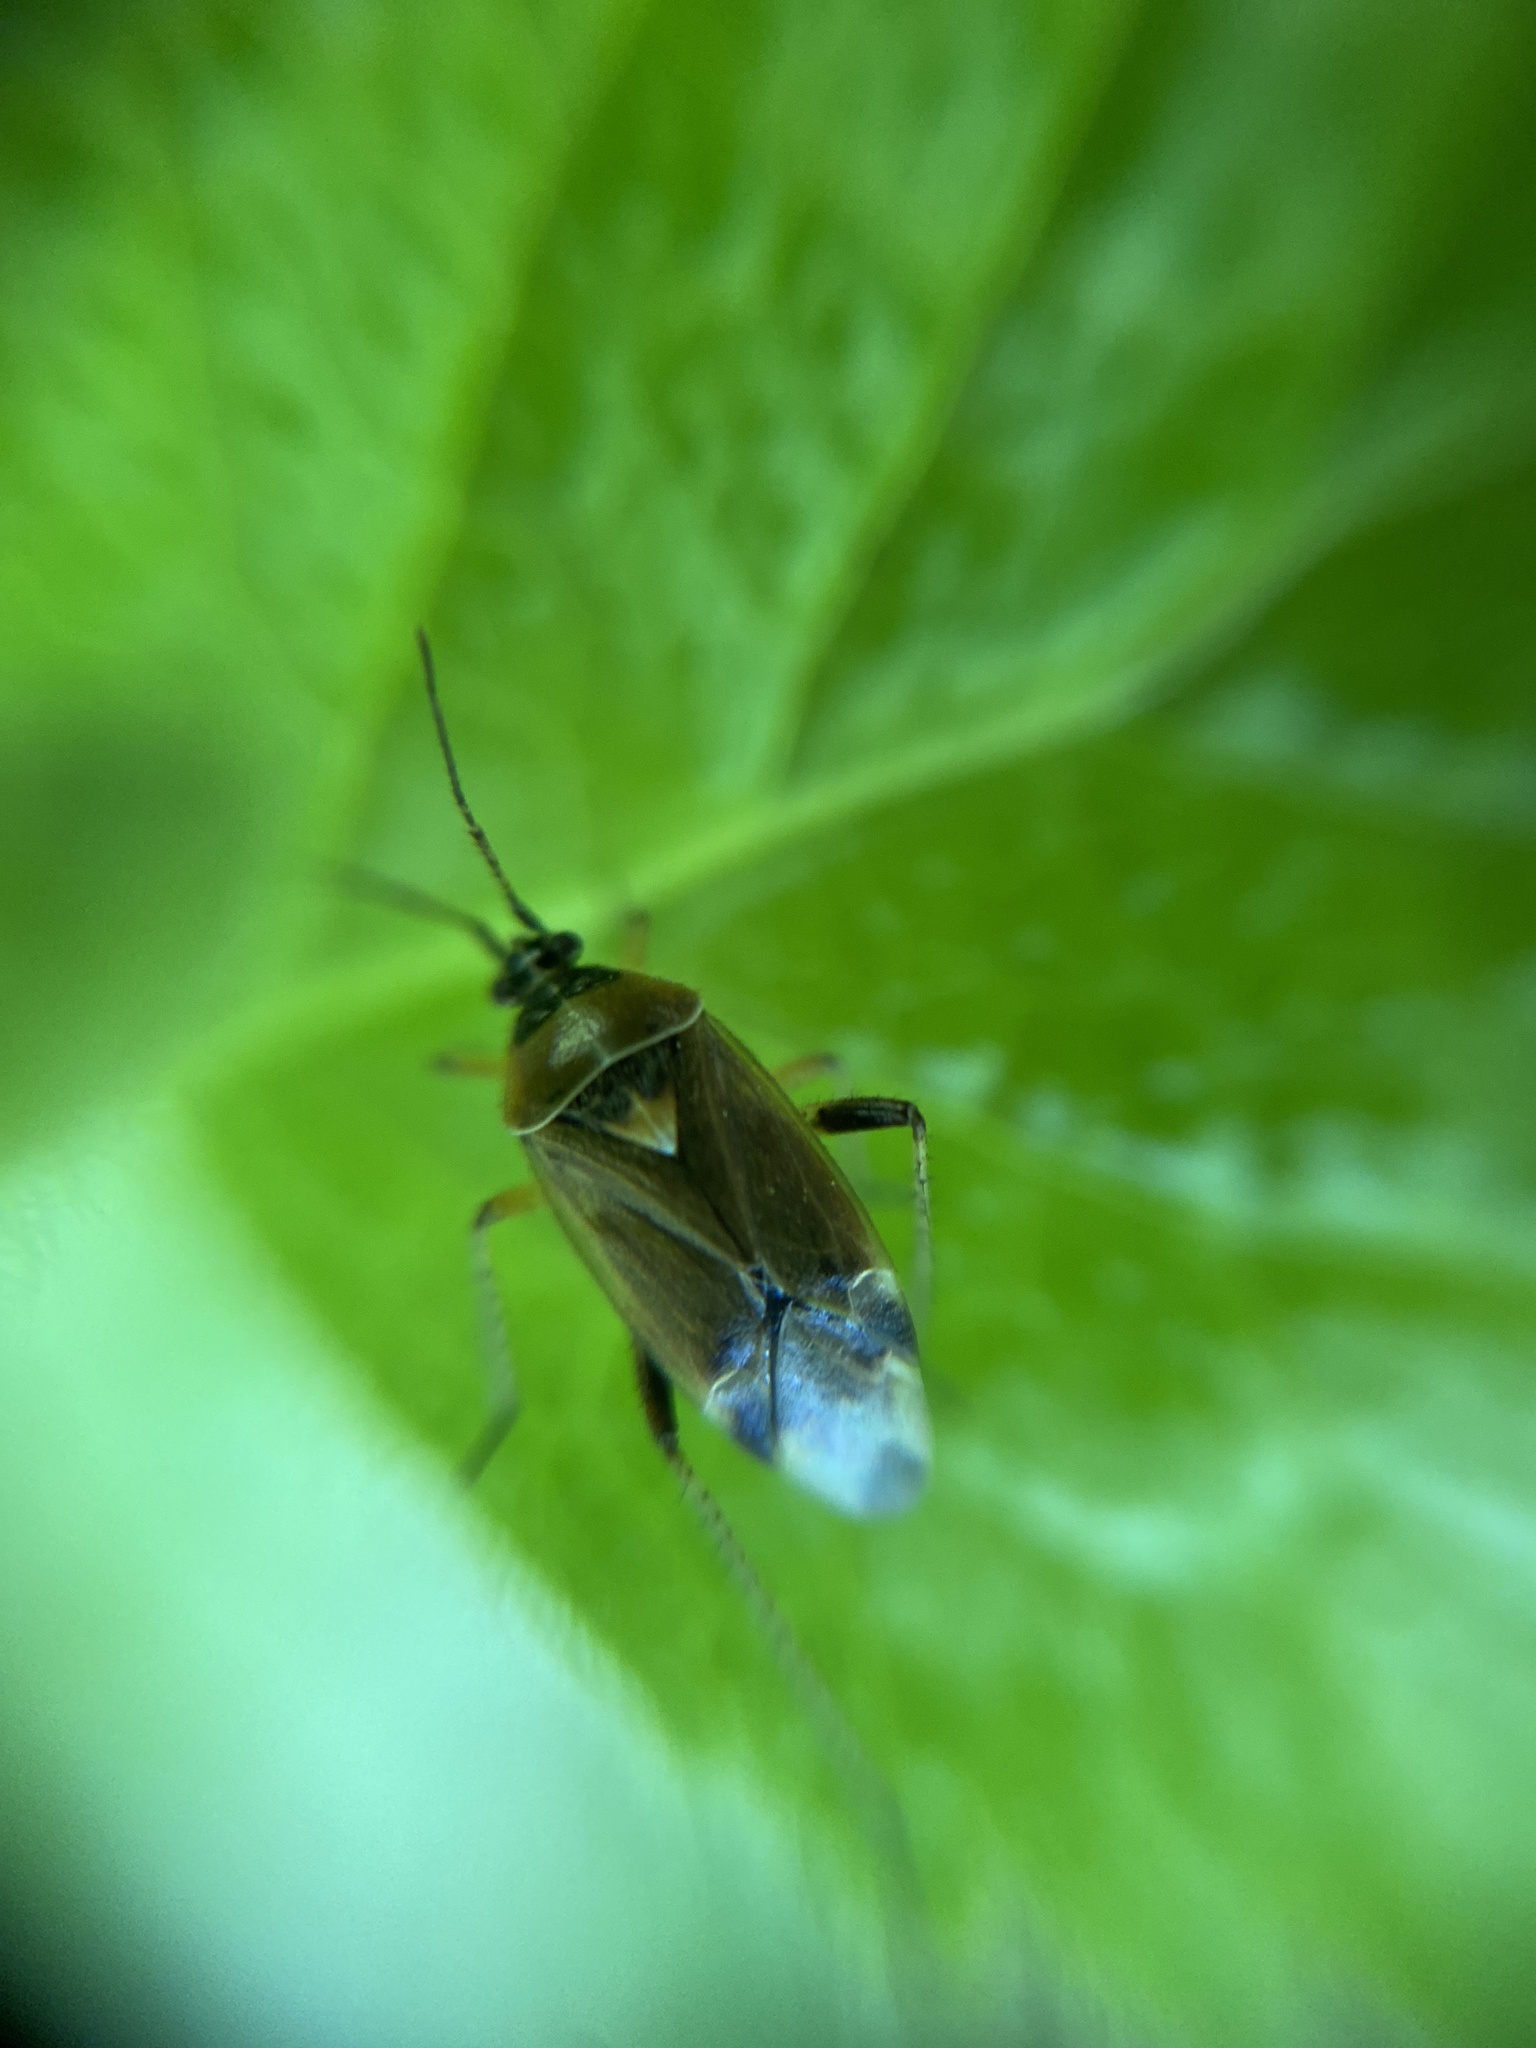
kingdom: Animalia
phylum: Arthropoda
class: Insecta
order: Hemiptera
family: Miridae
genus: Harpocera
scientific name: Harpocera thoracica
